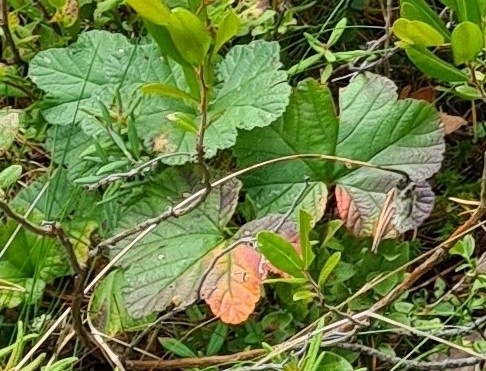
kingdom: Plantae
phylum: Tracheophyta
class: Magnoliopsida
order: Rosales
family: Rosaceae
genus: Rubus
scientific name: Rubus chamaemorus
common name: Cloudberry
